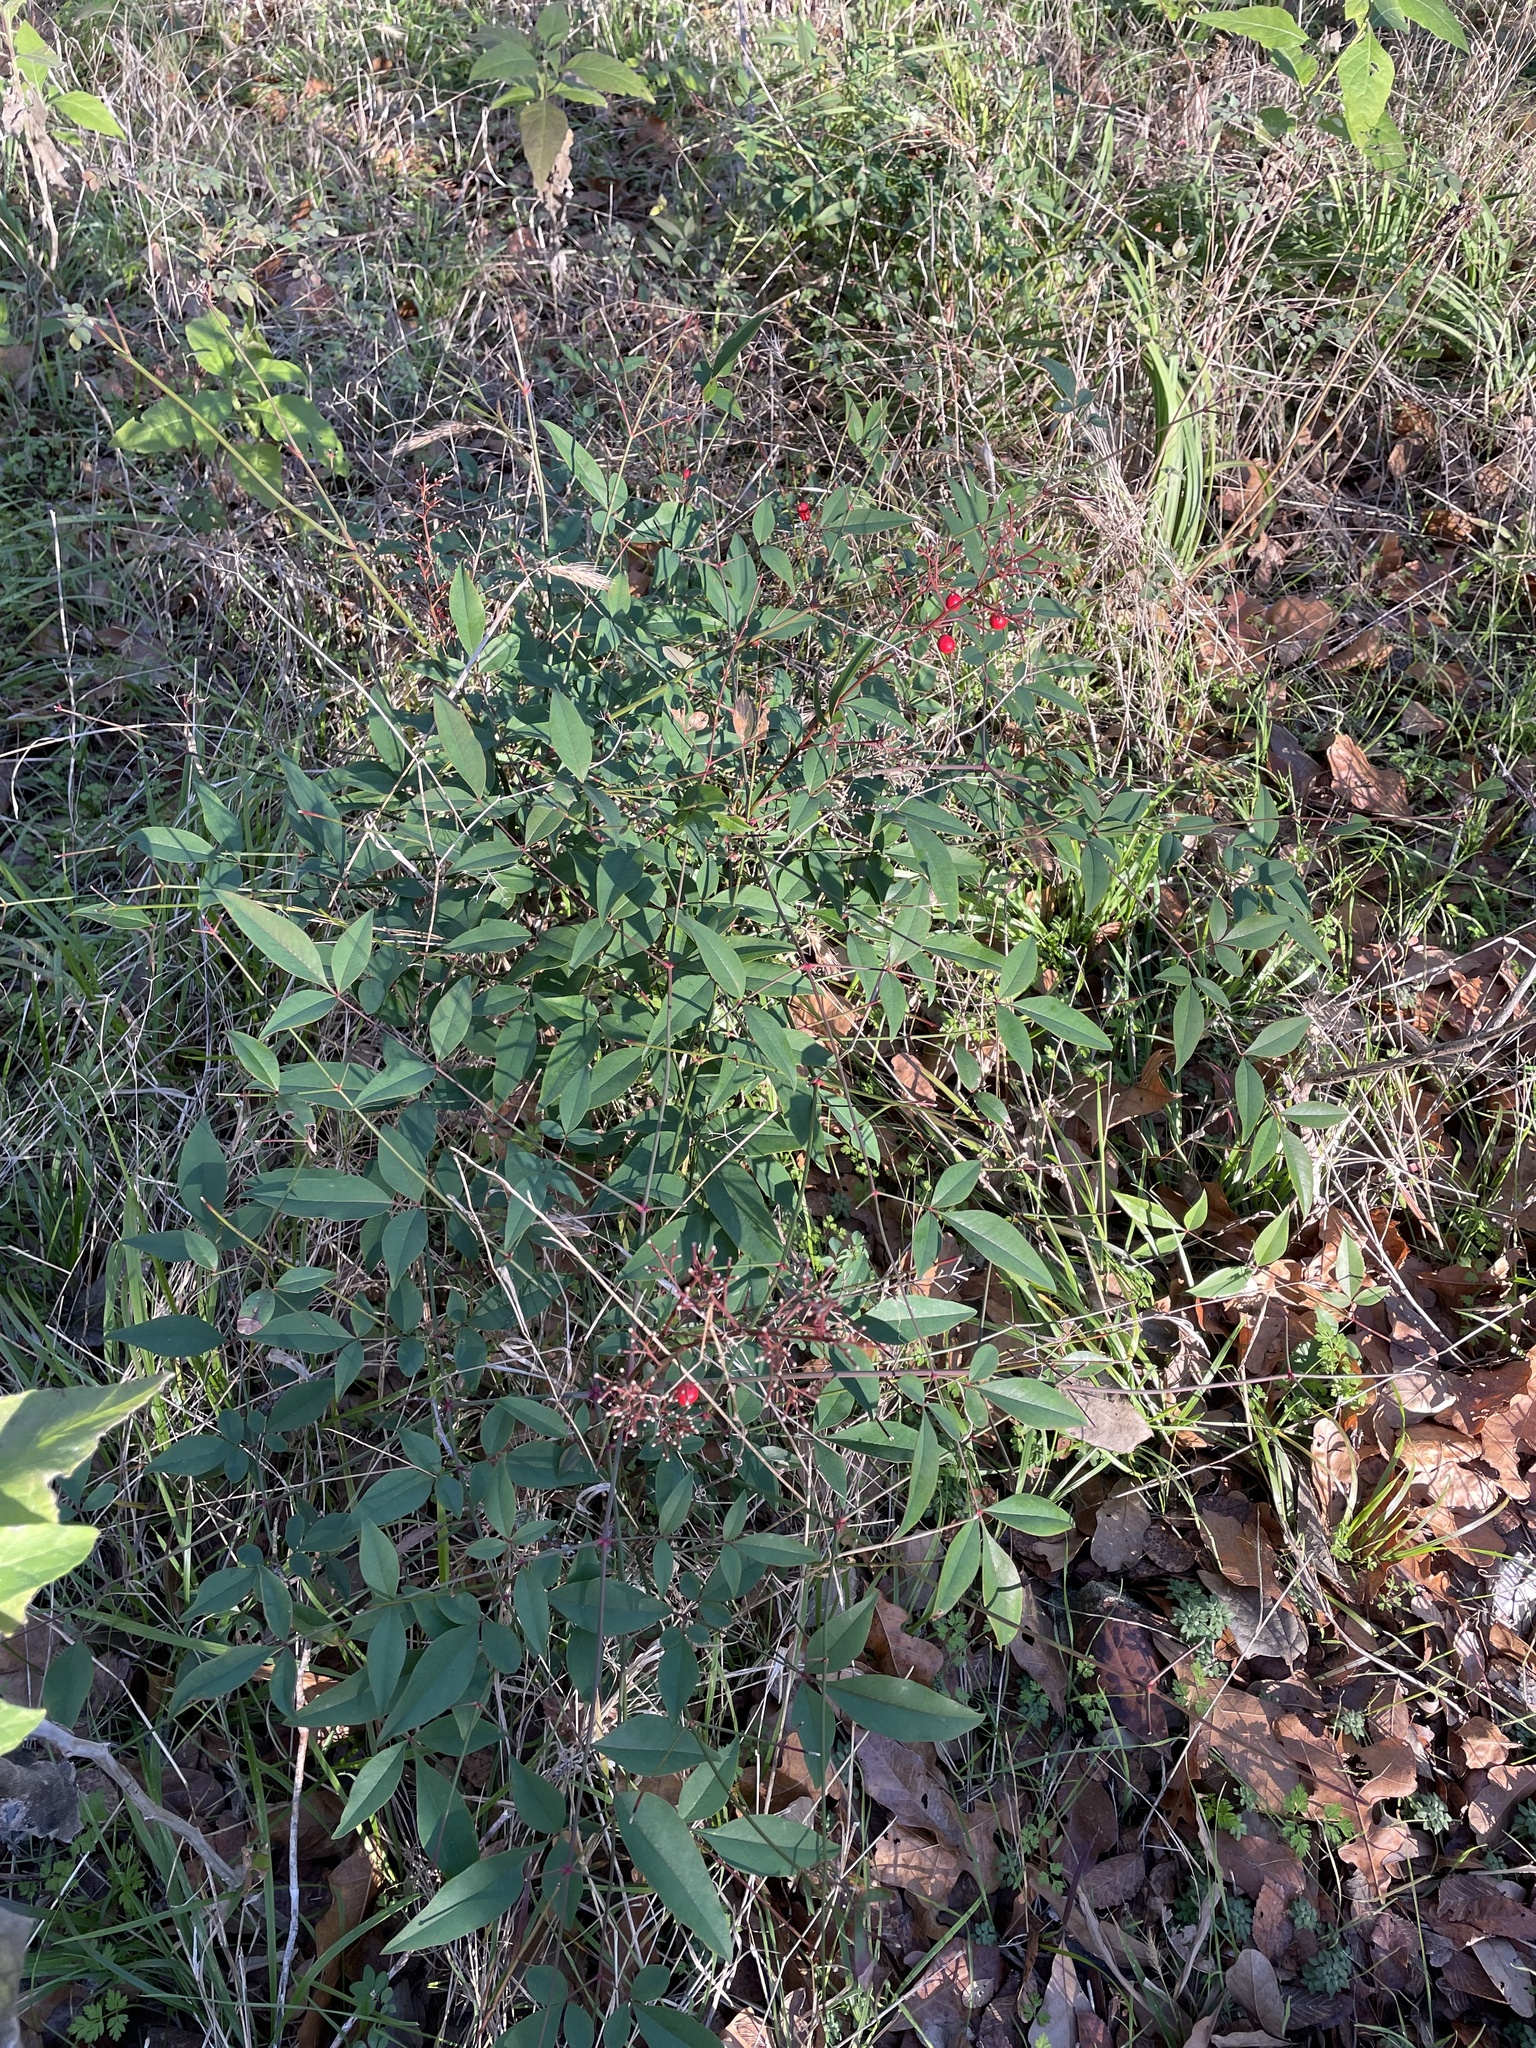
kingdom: Plantae
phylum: Tracheophyta
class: Magnoliopsida
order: Ranunculales
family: Berberidaceae
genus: Nandina
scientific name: Nandina domestica
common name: Sacred bamboo
